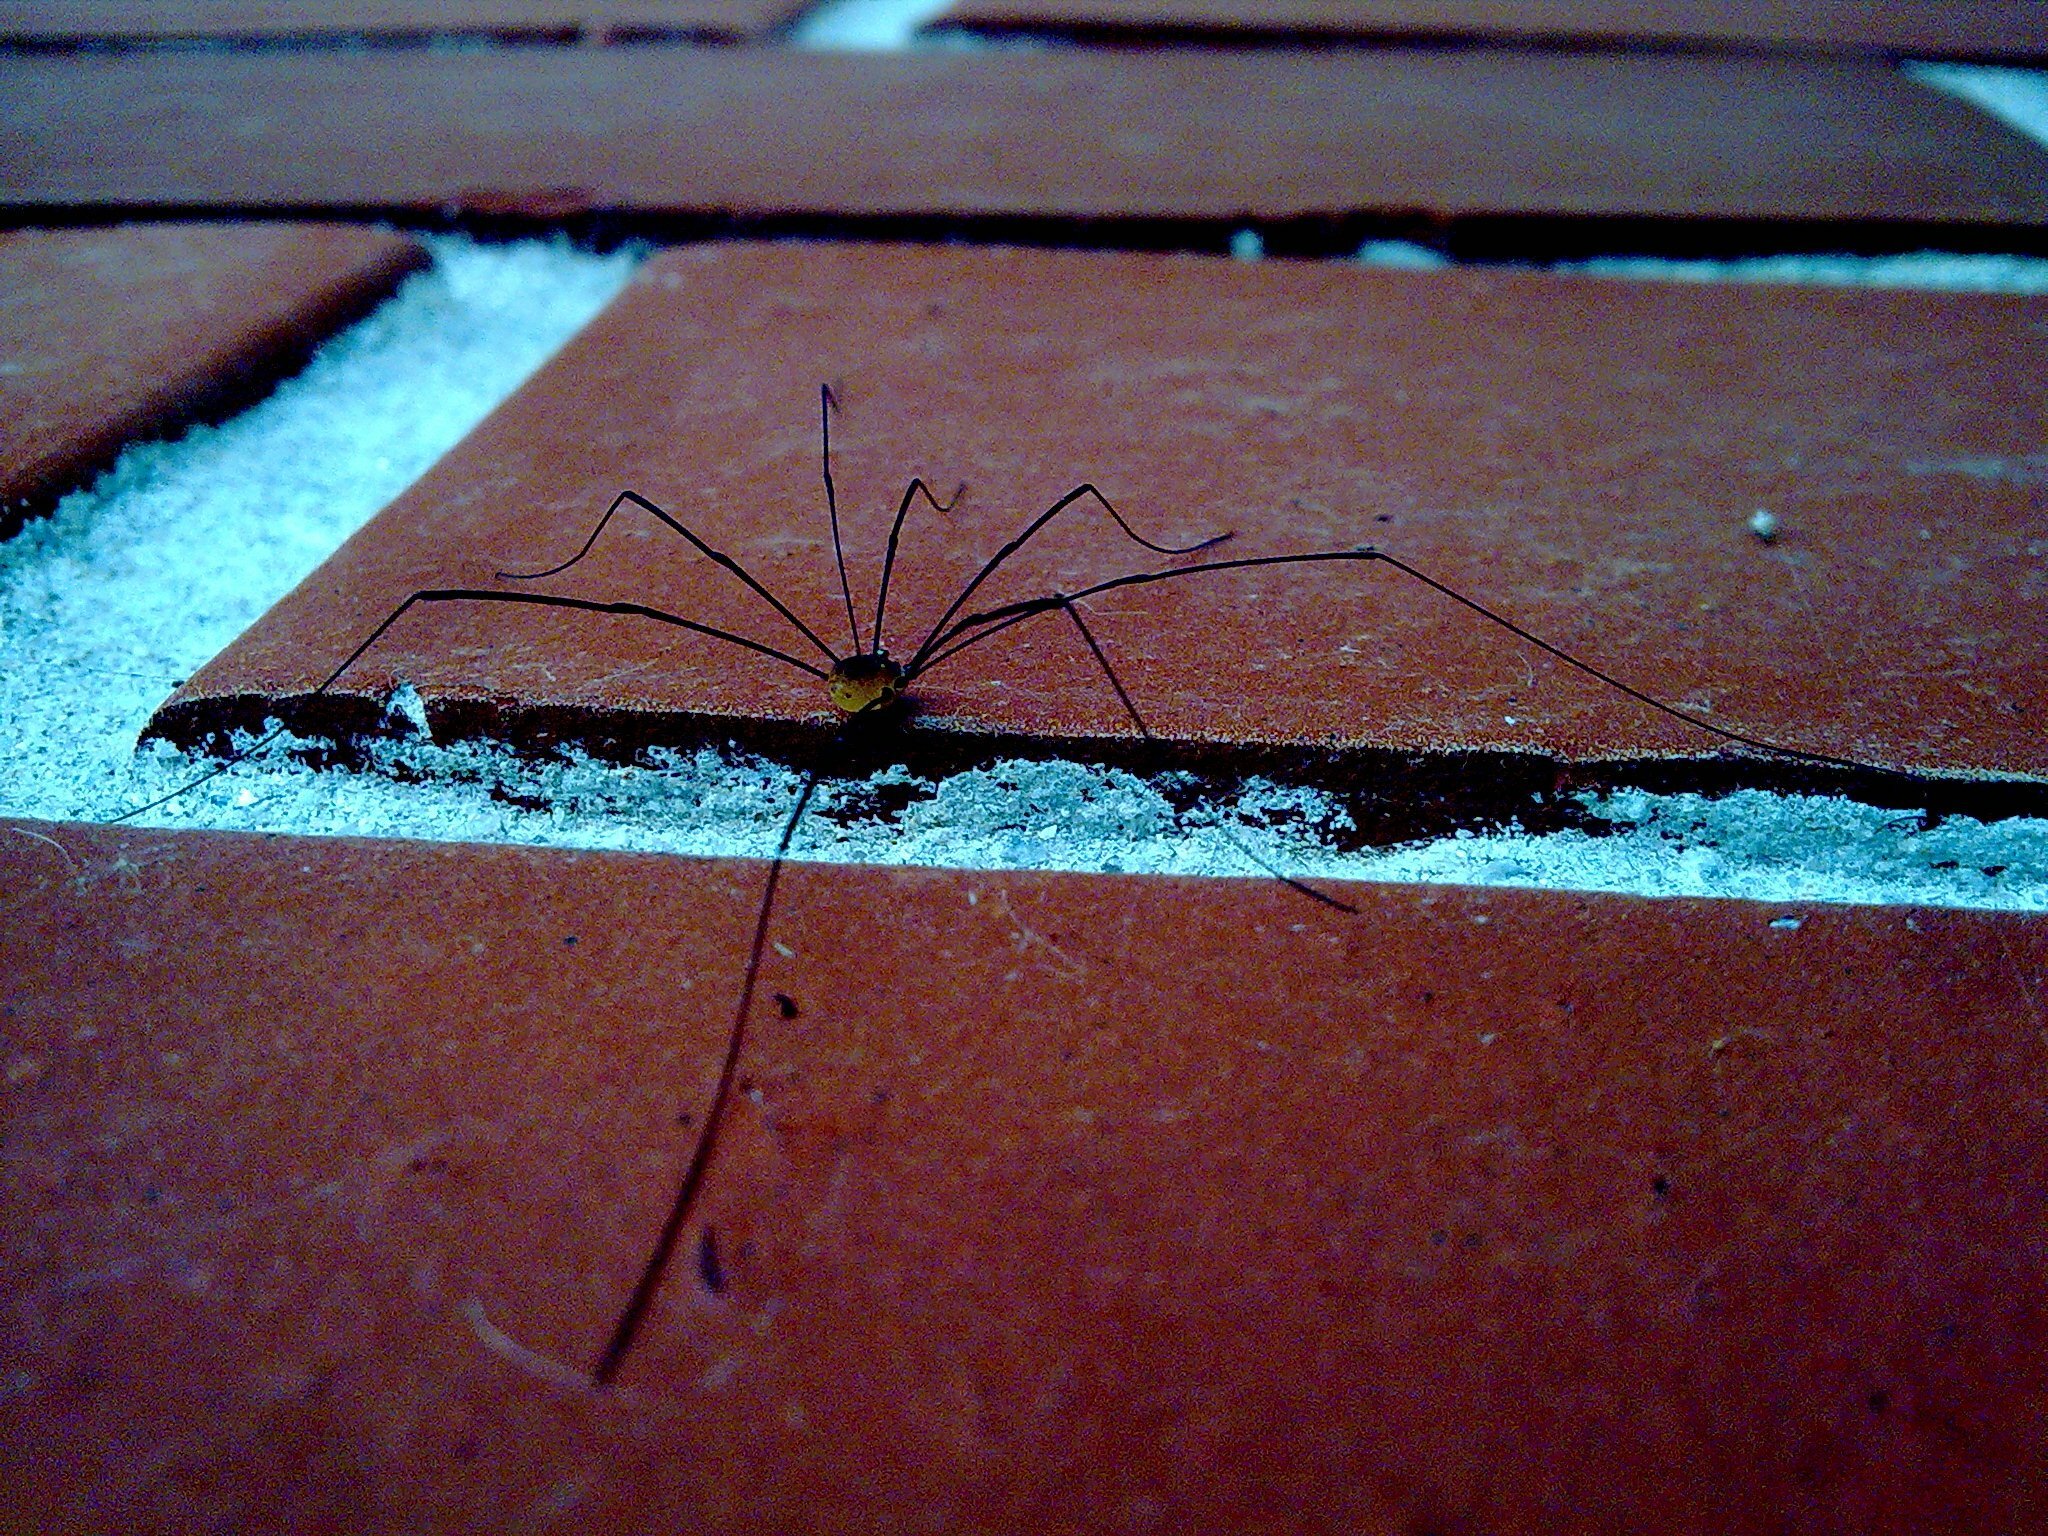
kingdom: Animalia
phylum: Arthropoda
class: Arachnida
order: Opiliones
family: Sclerosomatidae
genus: Leiobunum
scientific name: Leiobunum blackwalli
